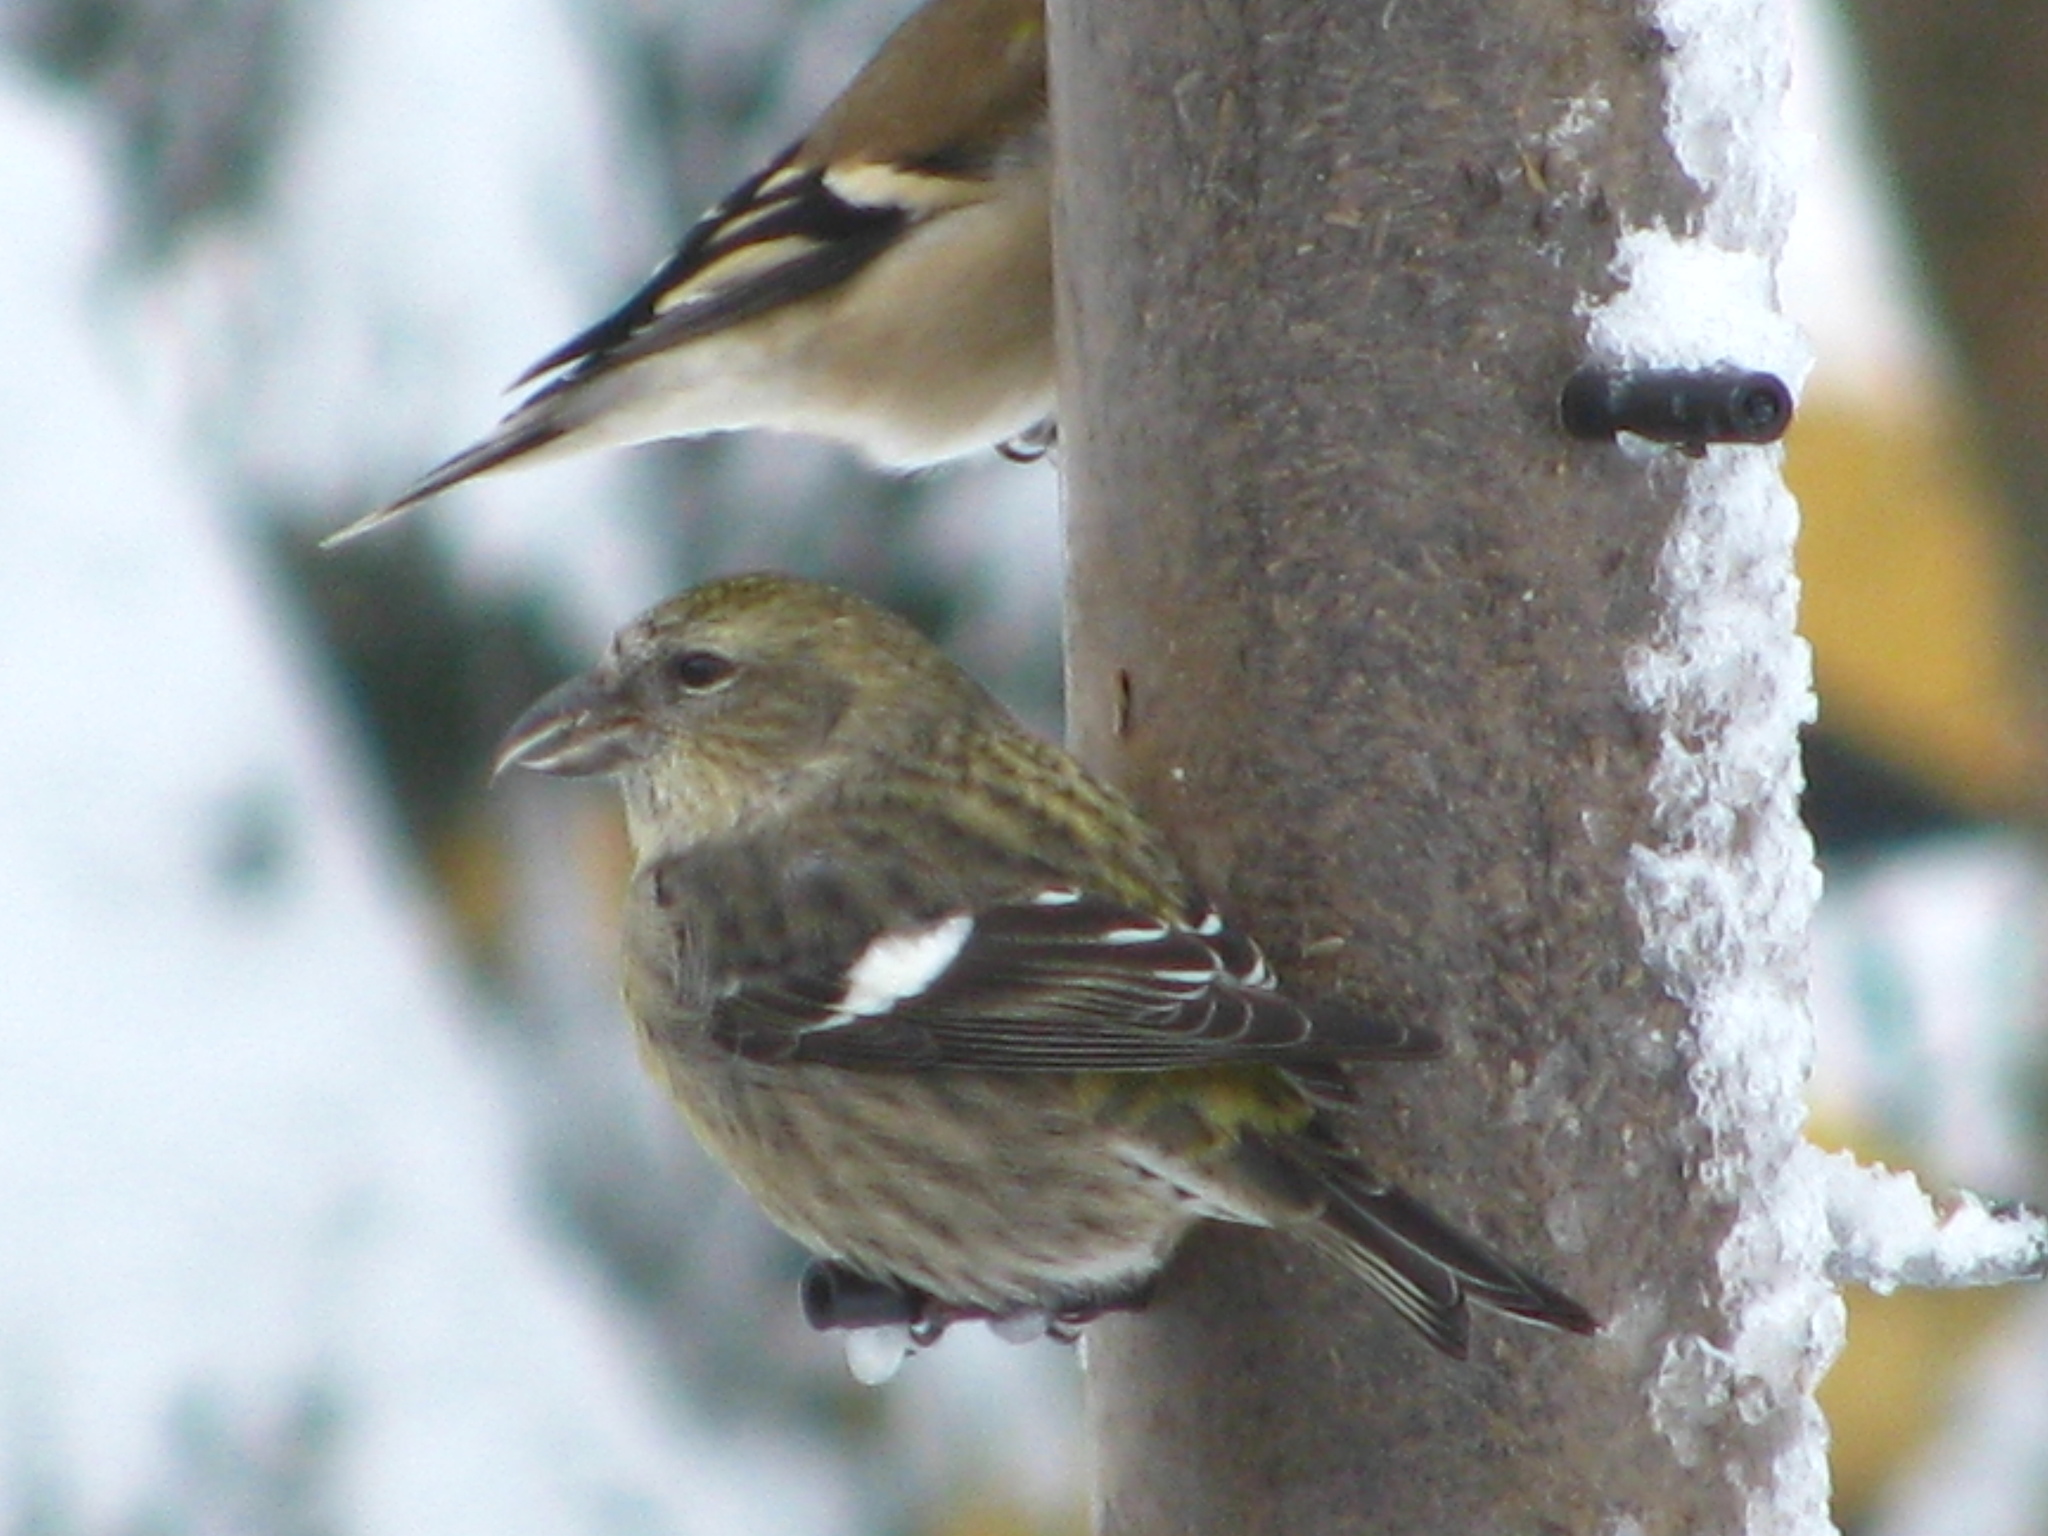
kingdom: Animalia
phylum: Chordata
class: Aves
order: Passeriformes
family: Fringillidae
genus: Loxia
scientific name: Loxia leucoptera
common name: Two-barred crossbill
